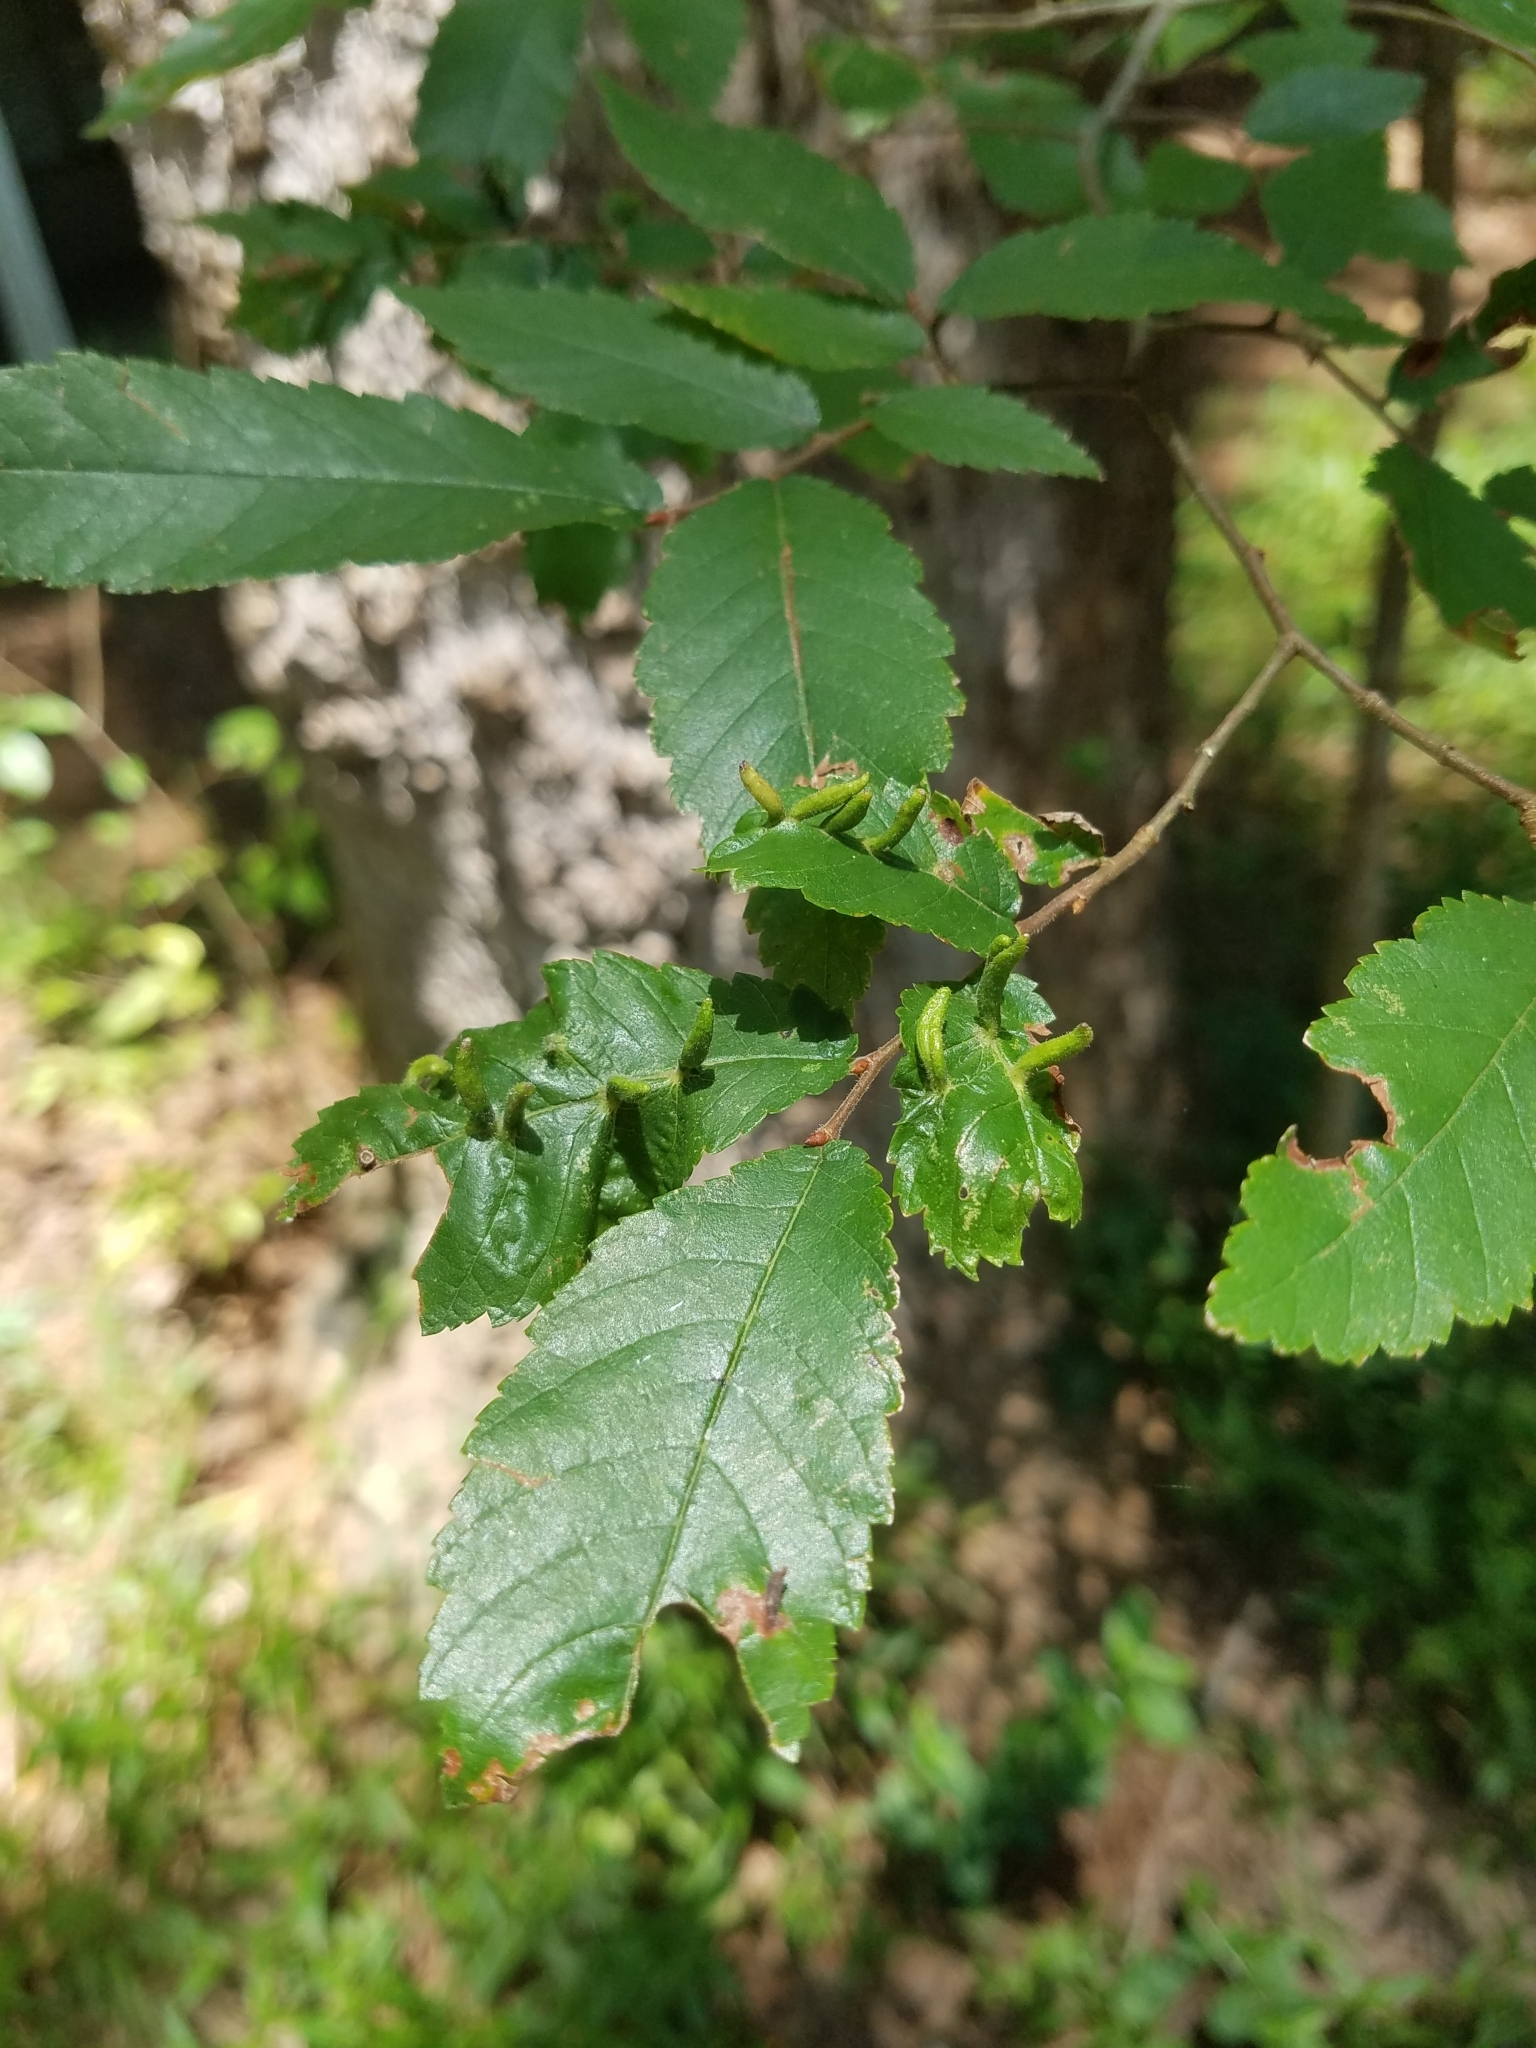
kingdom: Animalia
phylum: Arthropoda
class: Arachnida
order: Trombidiformes
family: Eriophyidae
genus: Aceria
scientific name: Aceria
